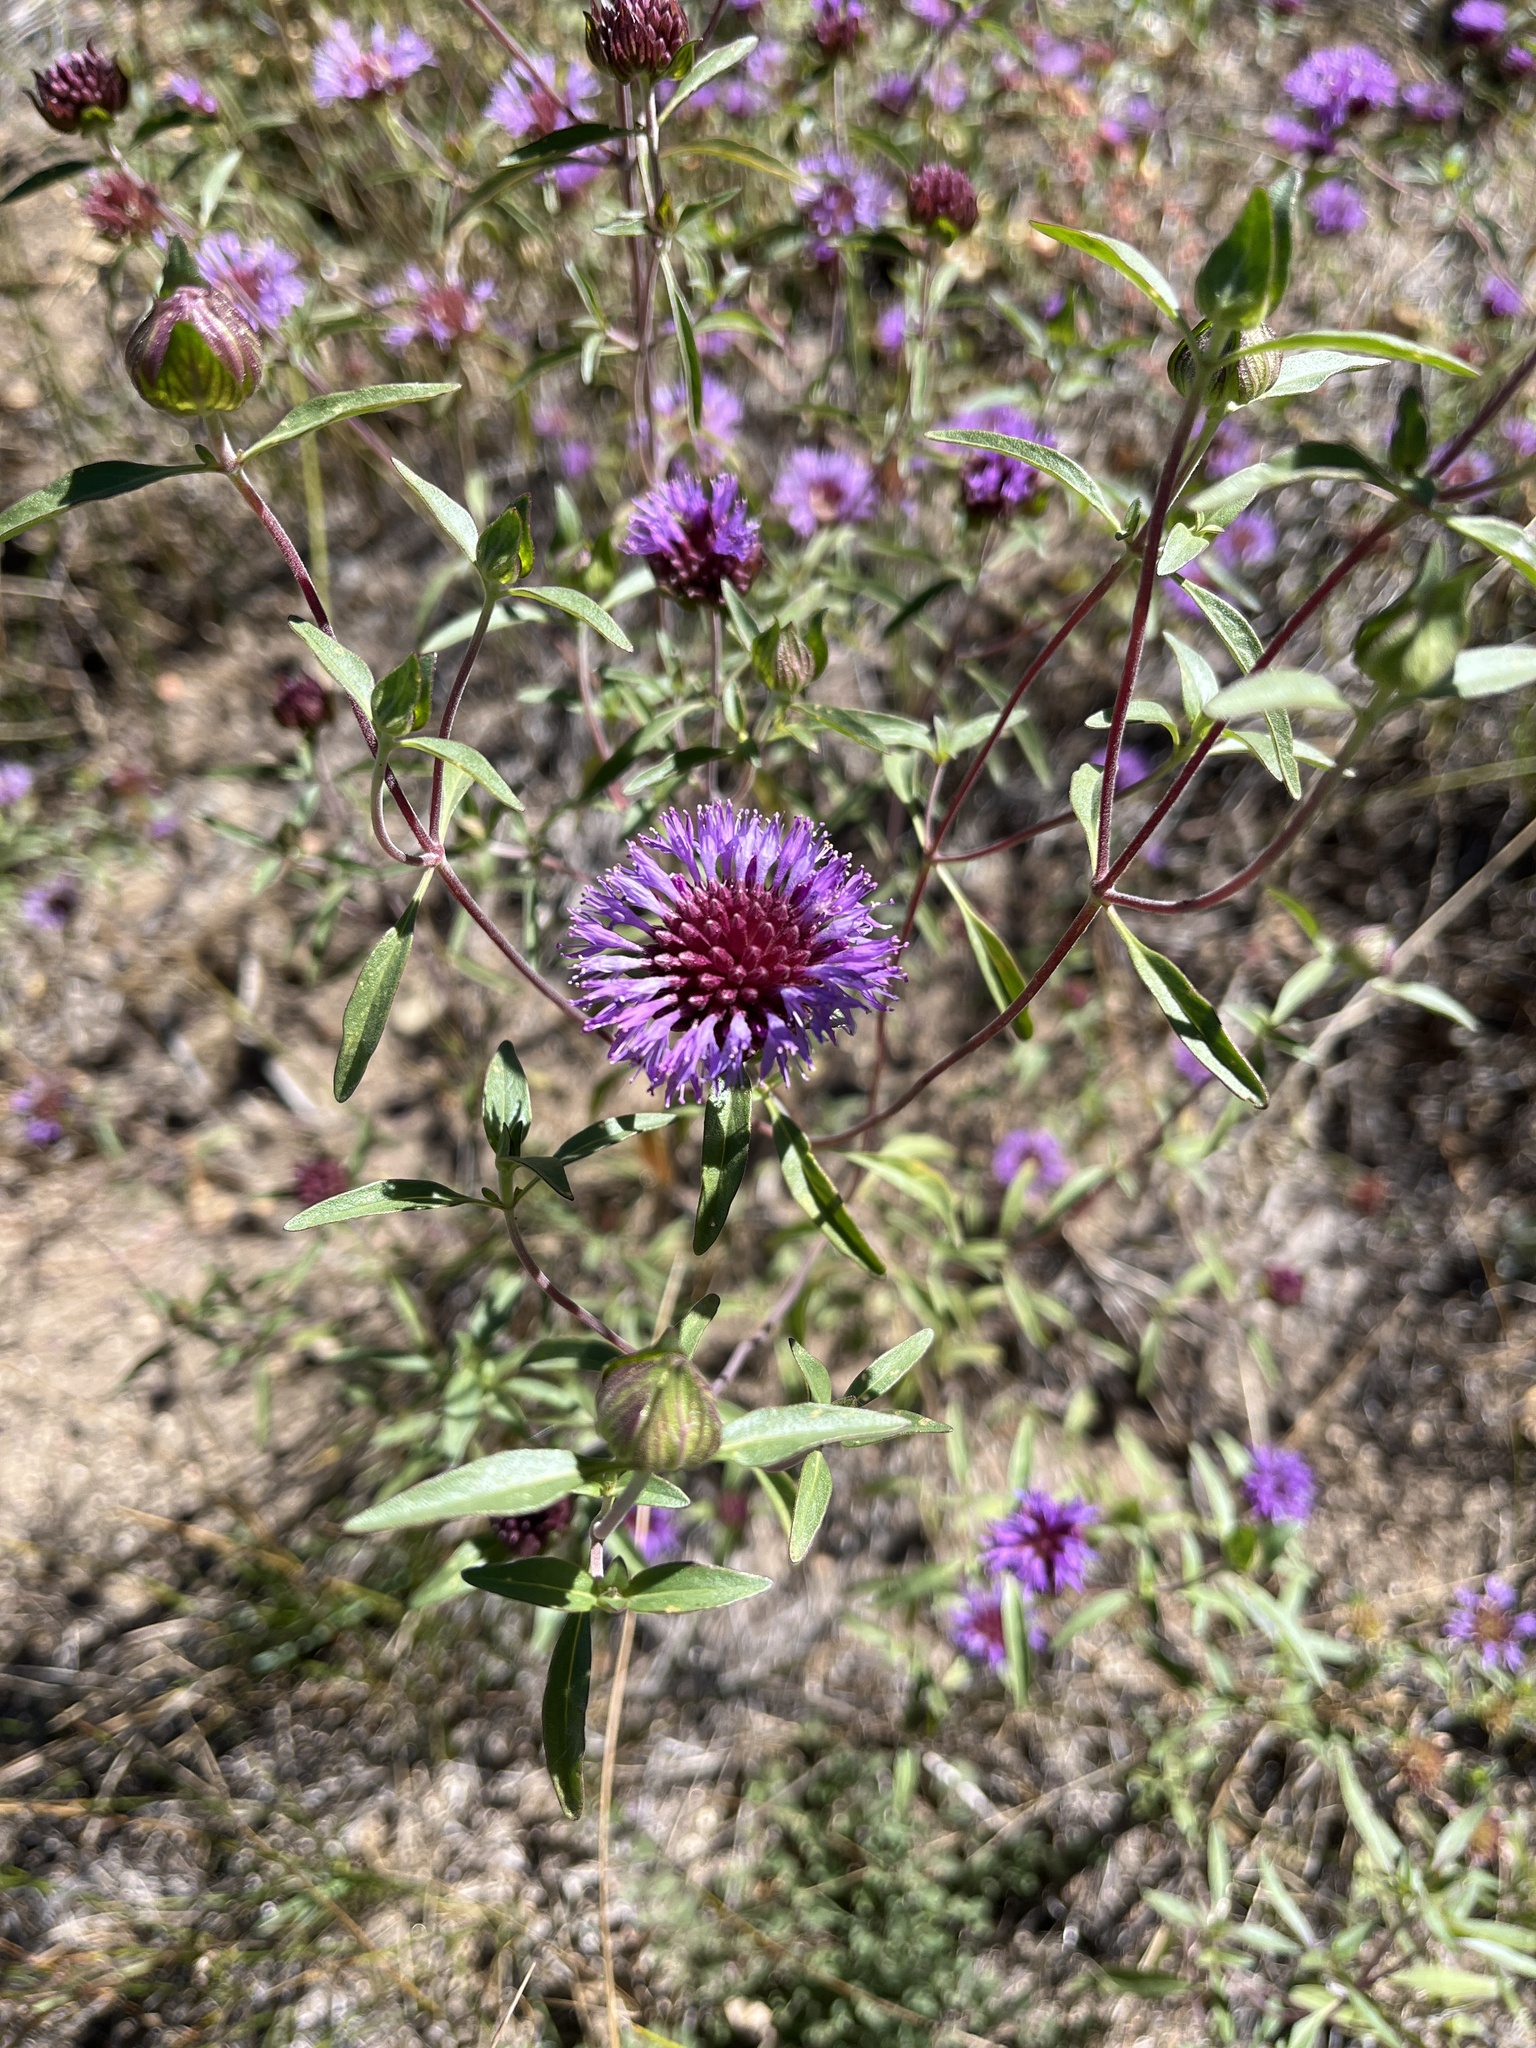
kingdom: Plantae
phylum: Tracheophyta
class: Magnoliopsida
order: Lamiales
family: Lamiaceae
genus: Monardella
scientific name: Monardella breweri
